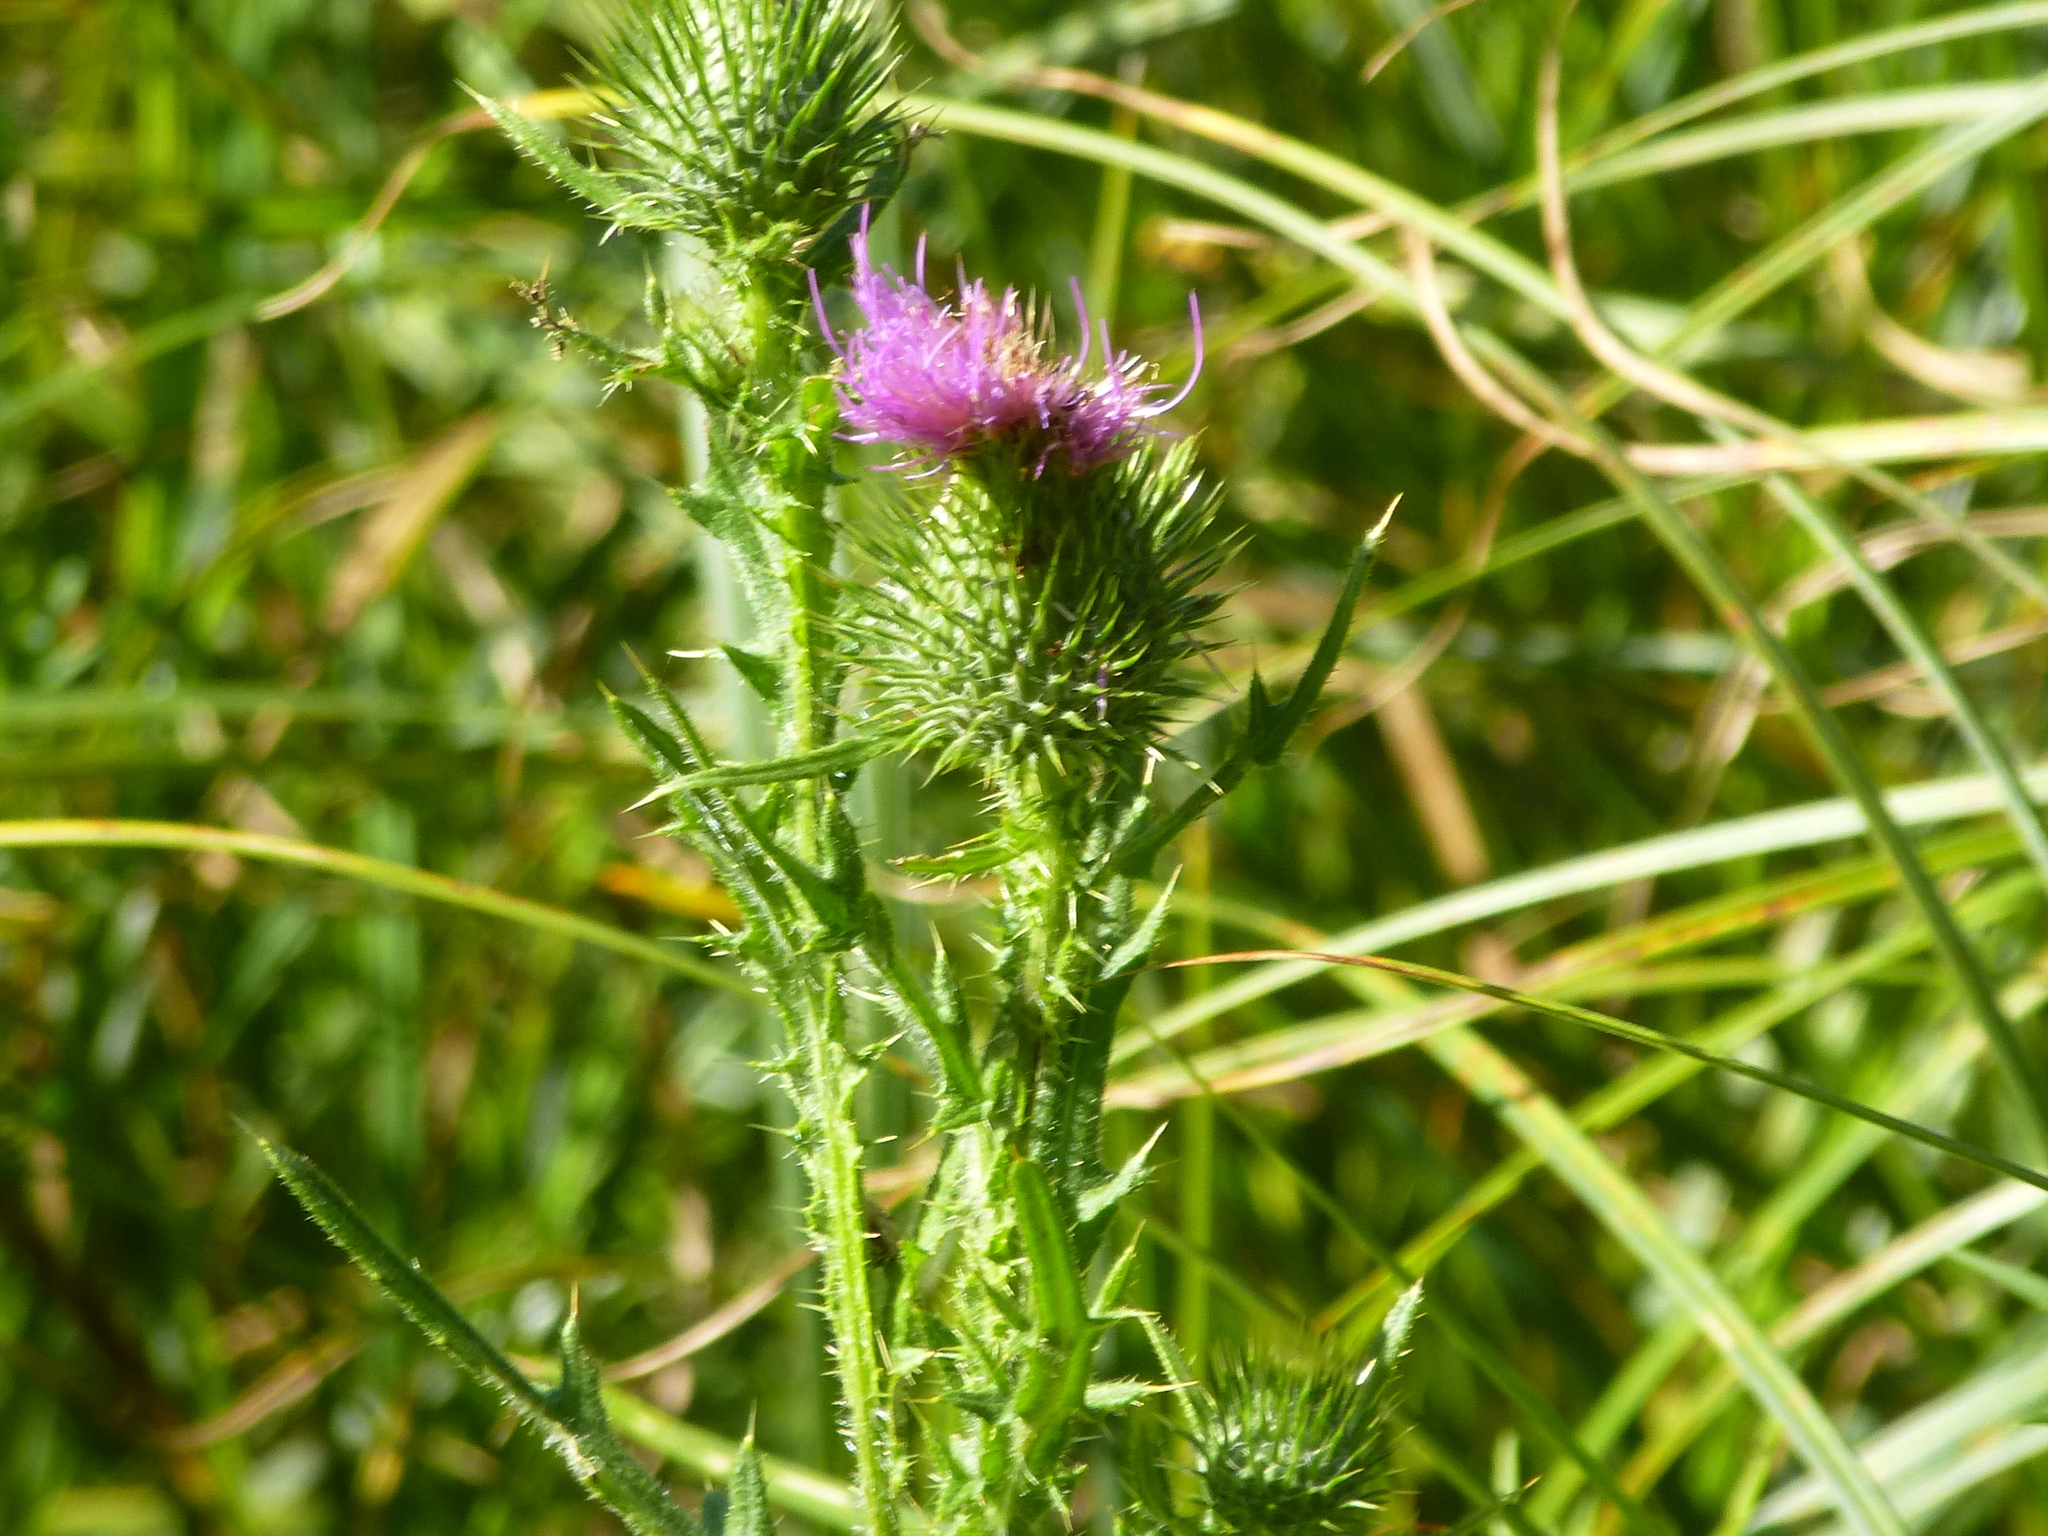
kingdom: Plantae
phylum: Tracheophyta
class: Magnoliopsida
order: Asterales
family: Asteraceae
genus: Cirsium
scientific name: Cirsium vulgare
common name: Bull thistle
